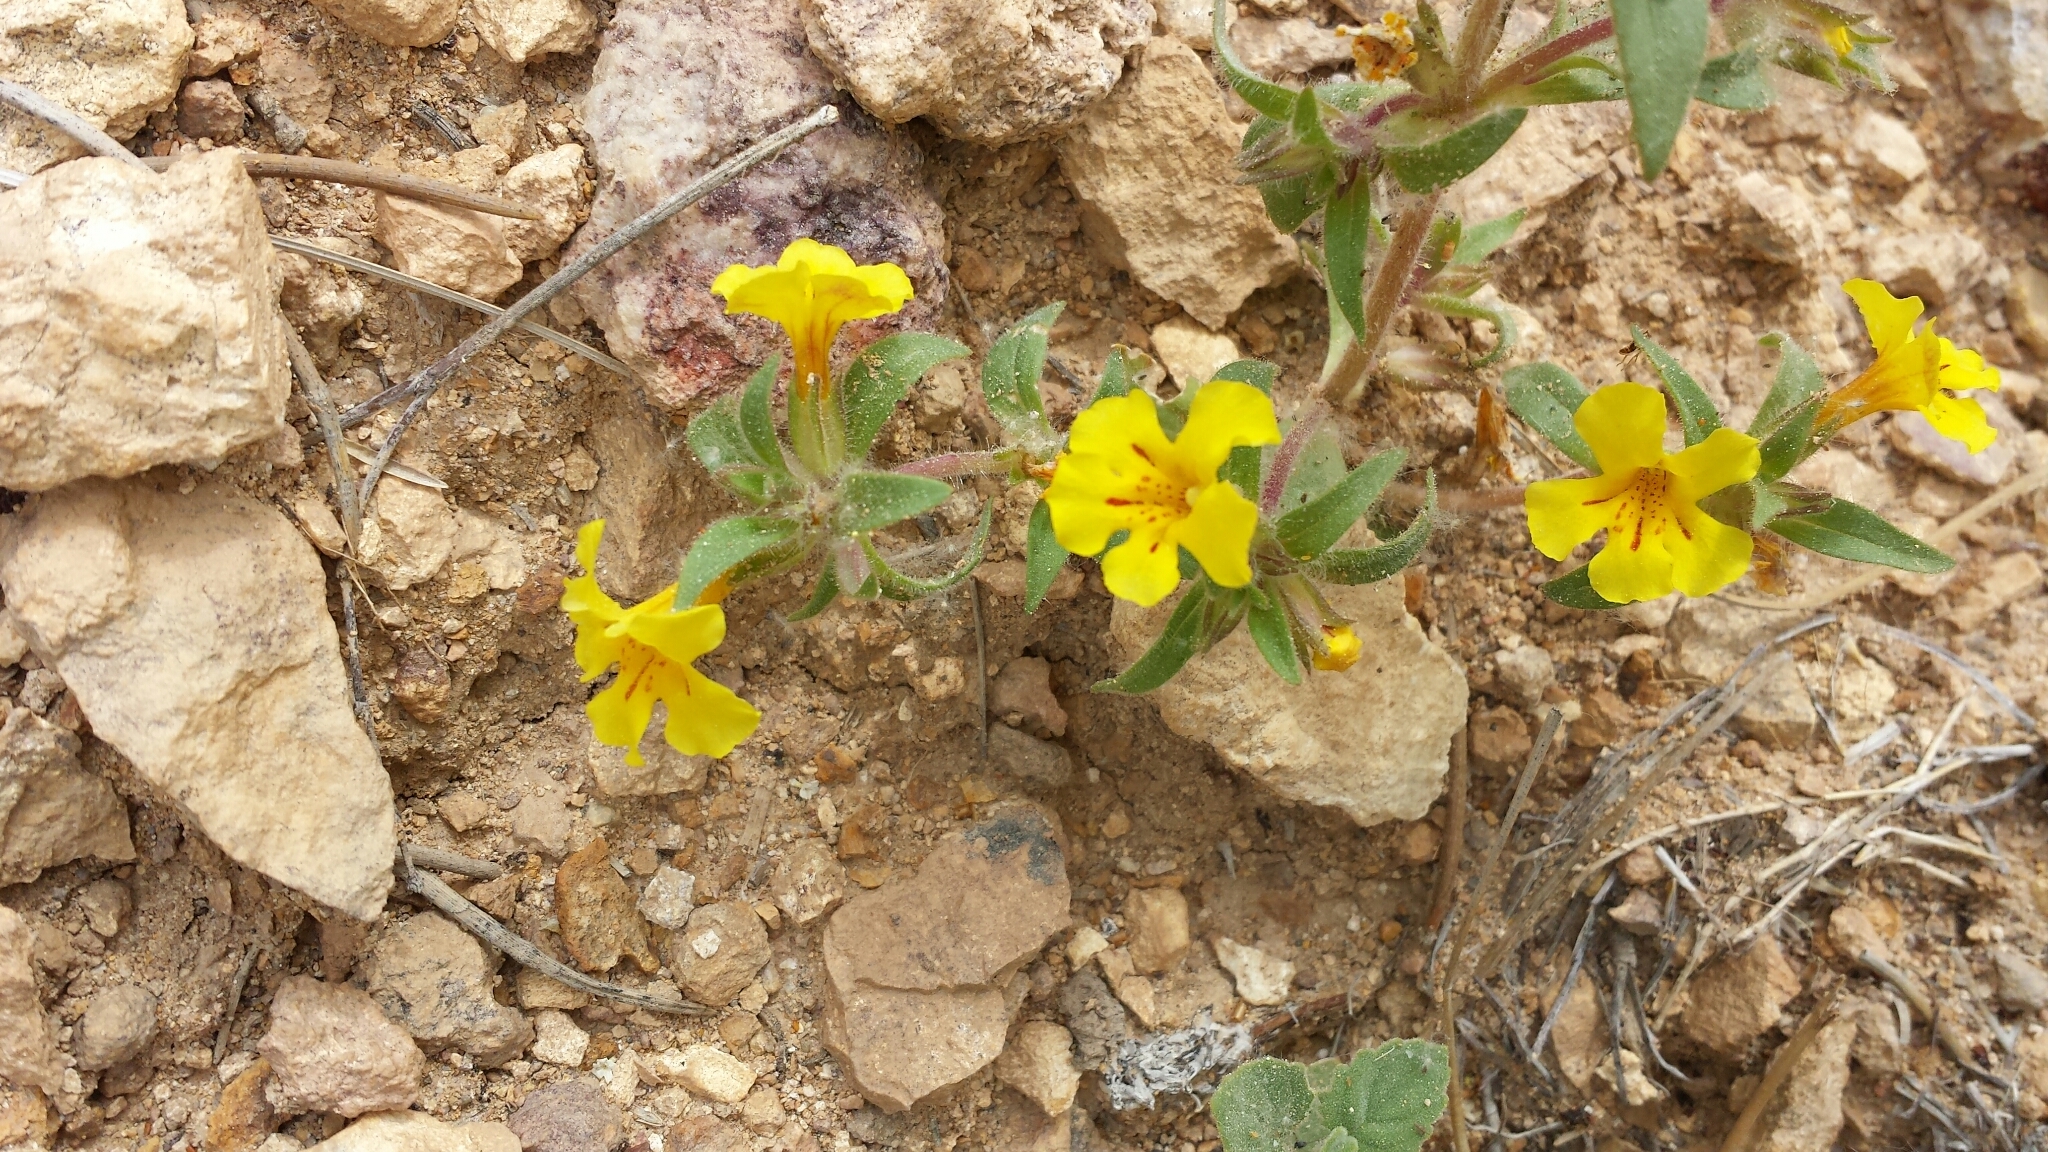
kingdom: Plantae
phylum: Tracheophyta
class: Magnoliopsida
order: Lamiales
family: Phrymaceae
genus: Diplacus
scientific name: Diplacus mephiticus
